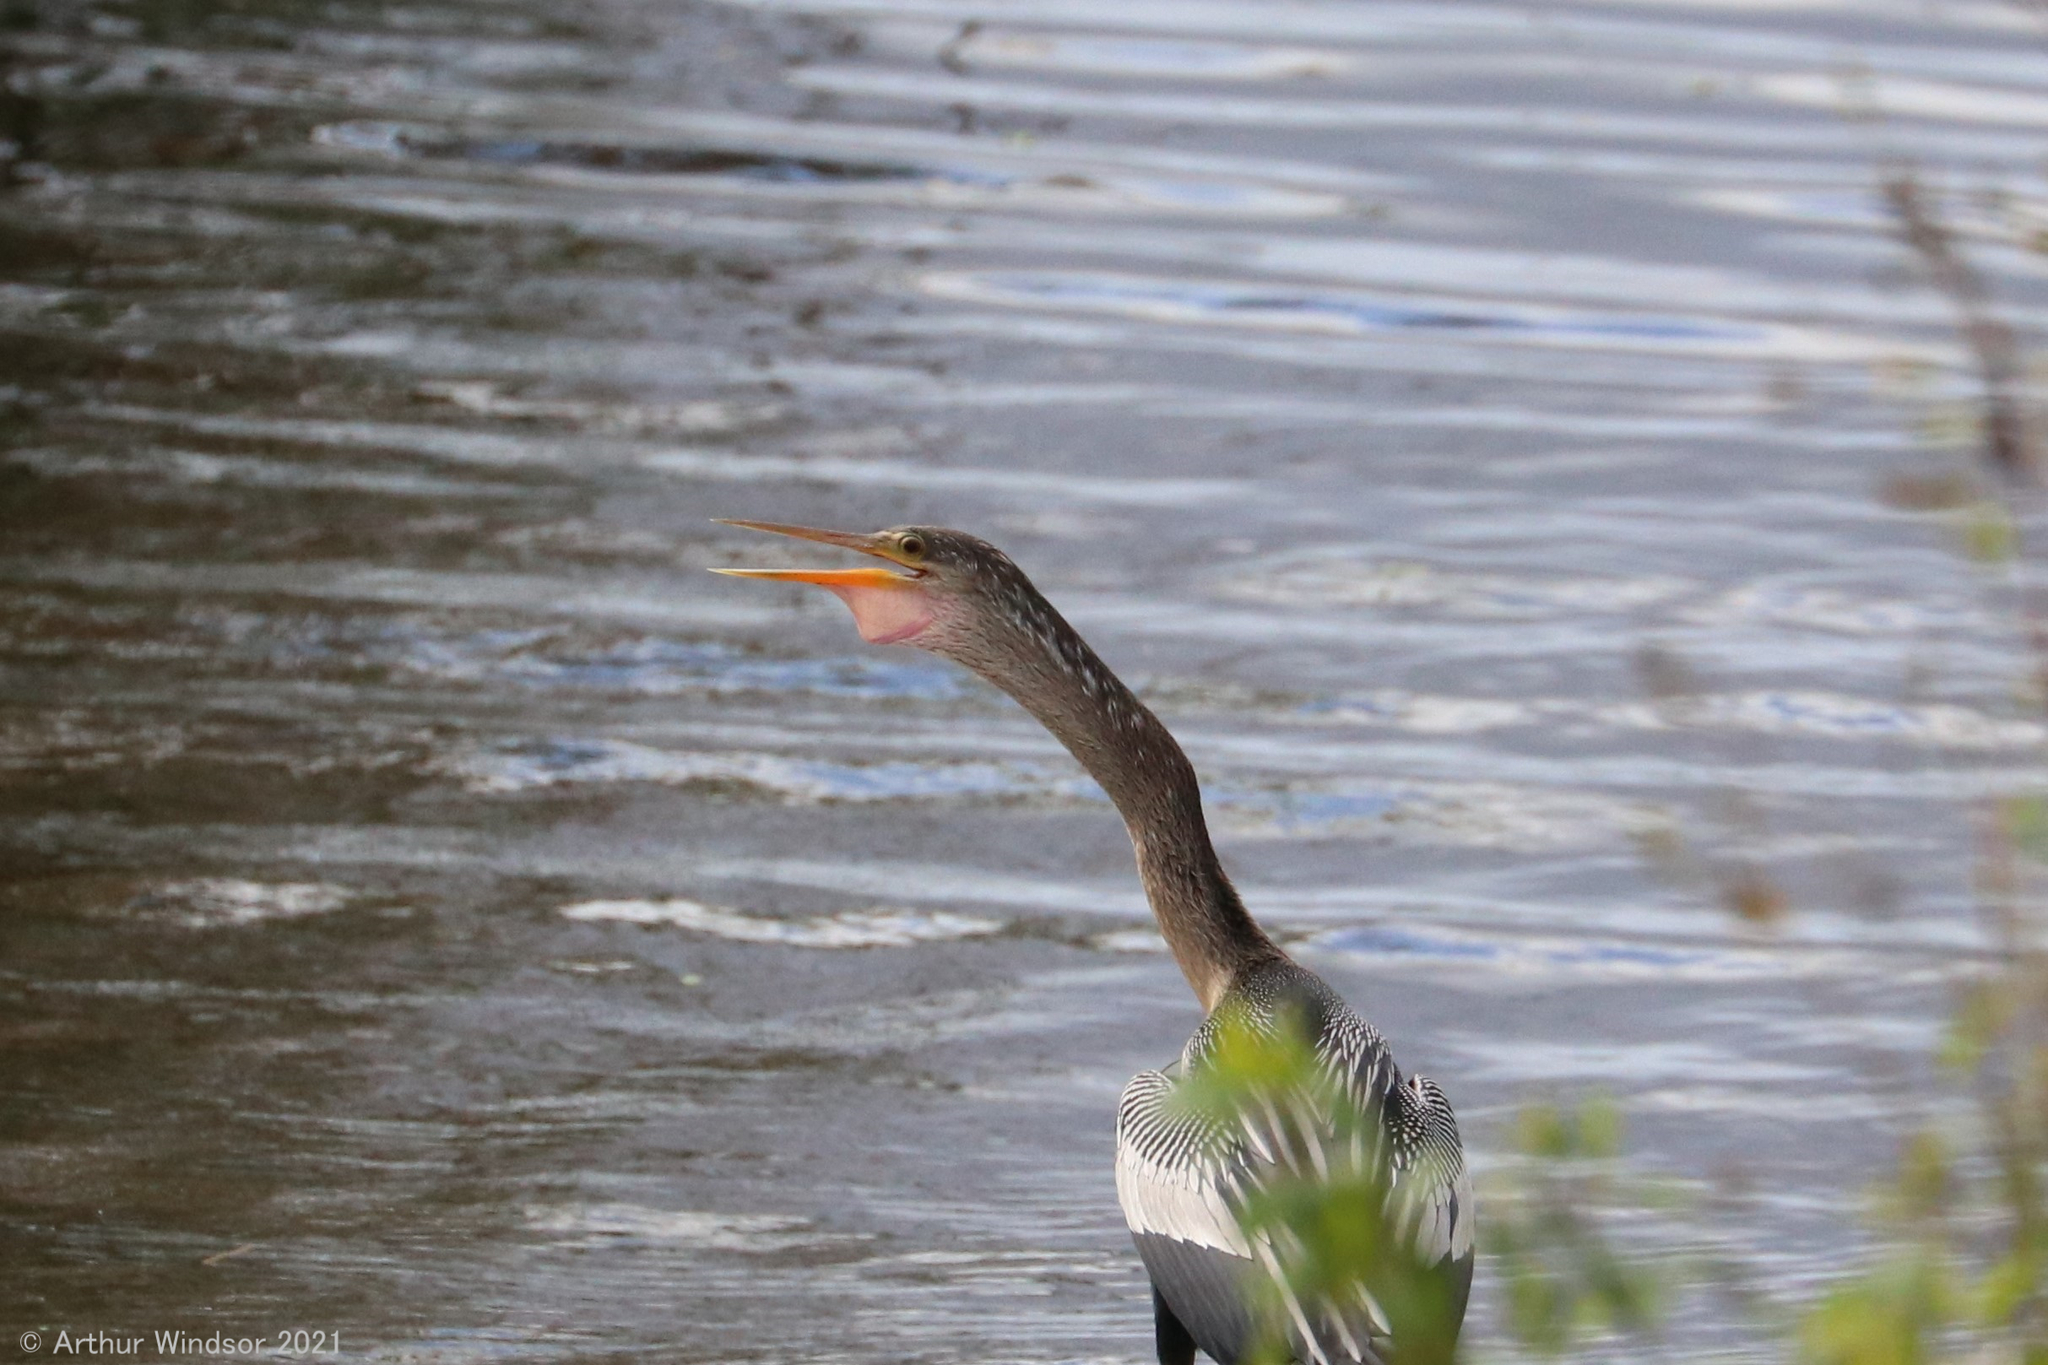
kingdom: Animalia
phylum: Chordata
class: Aves
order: Suliformes
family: Anhingidae
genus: Anhinga
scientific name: Anhinga anhinga
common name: Anhinga
